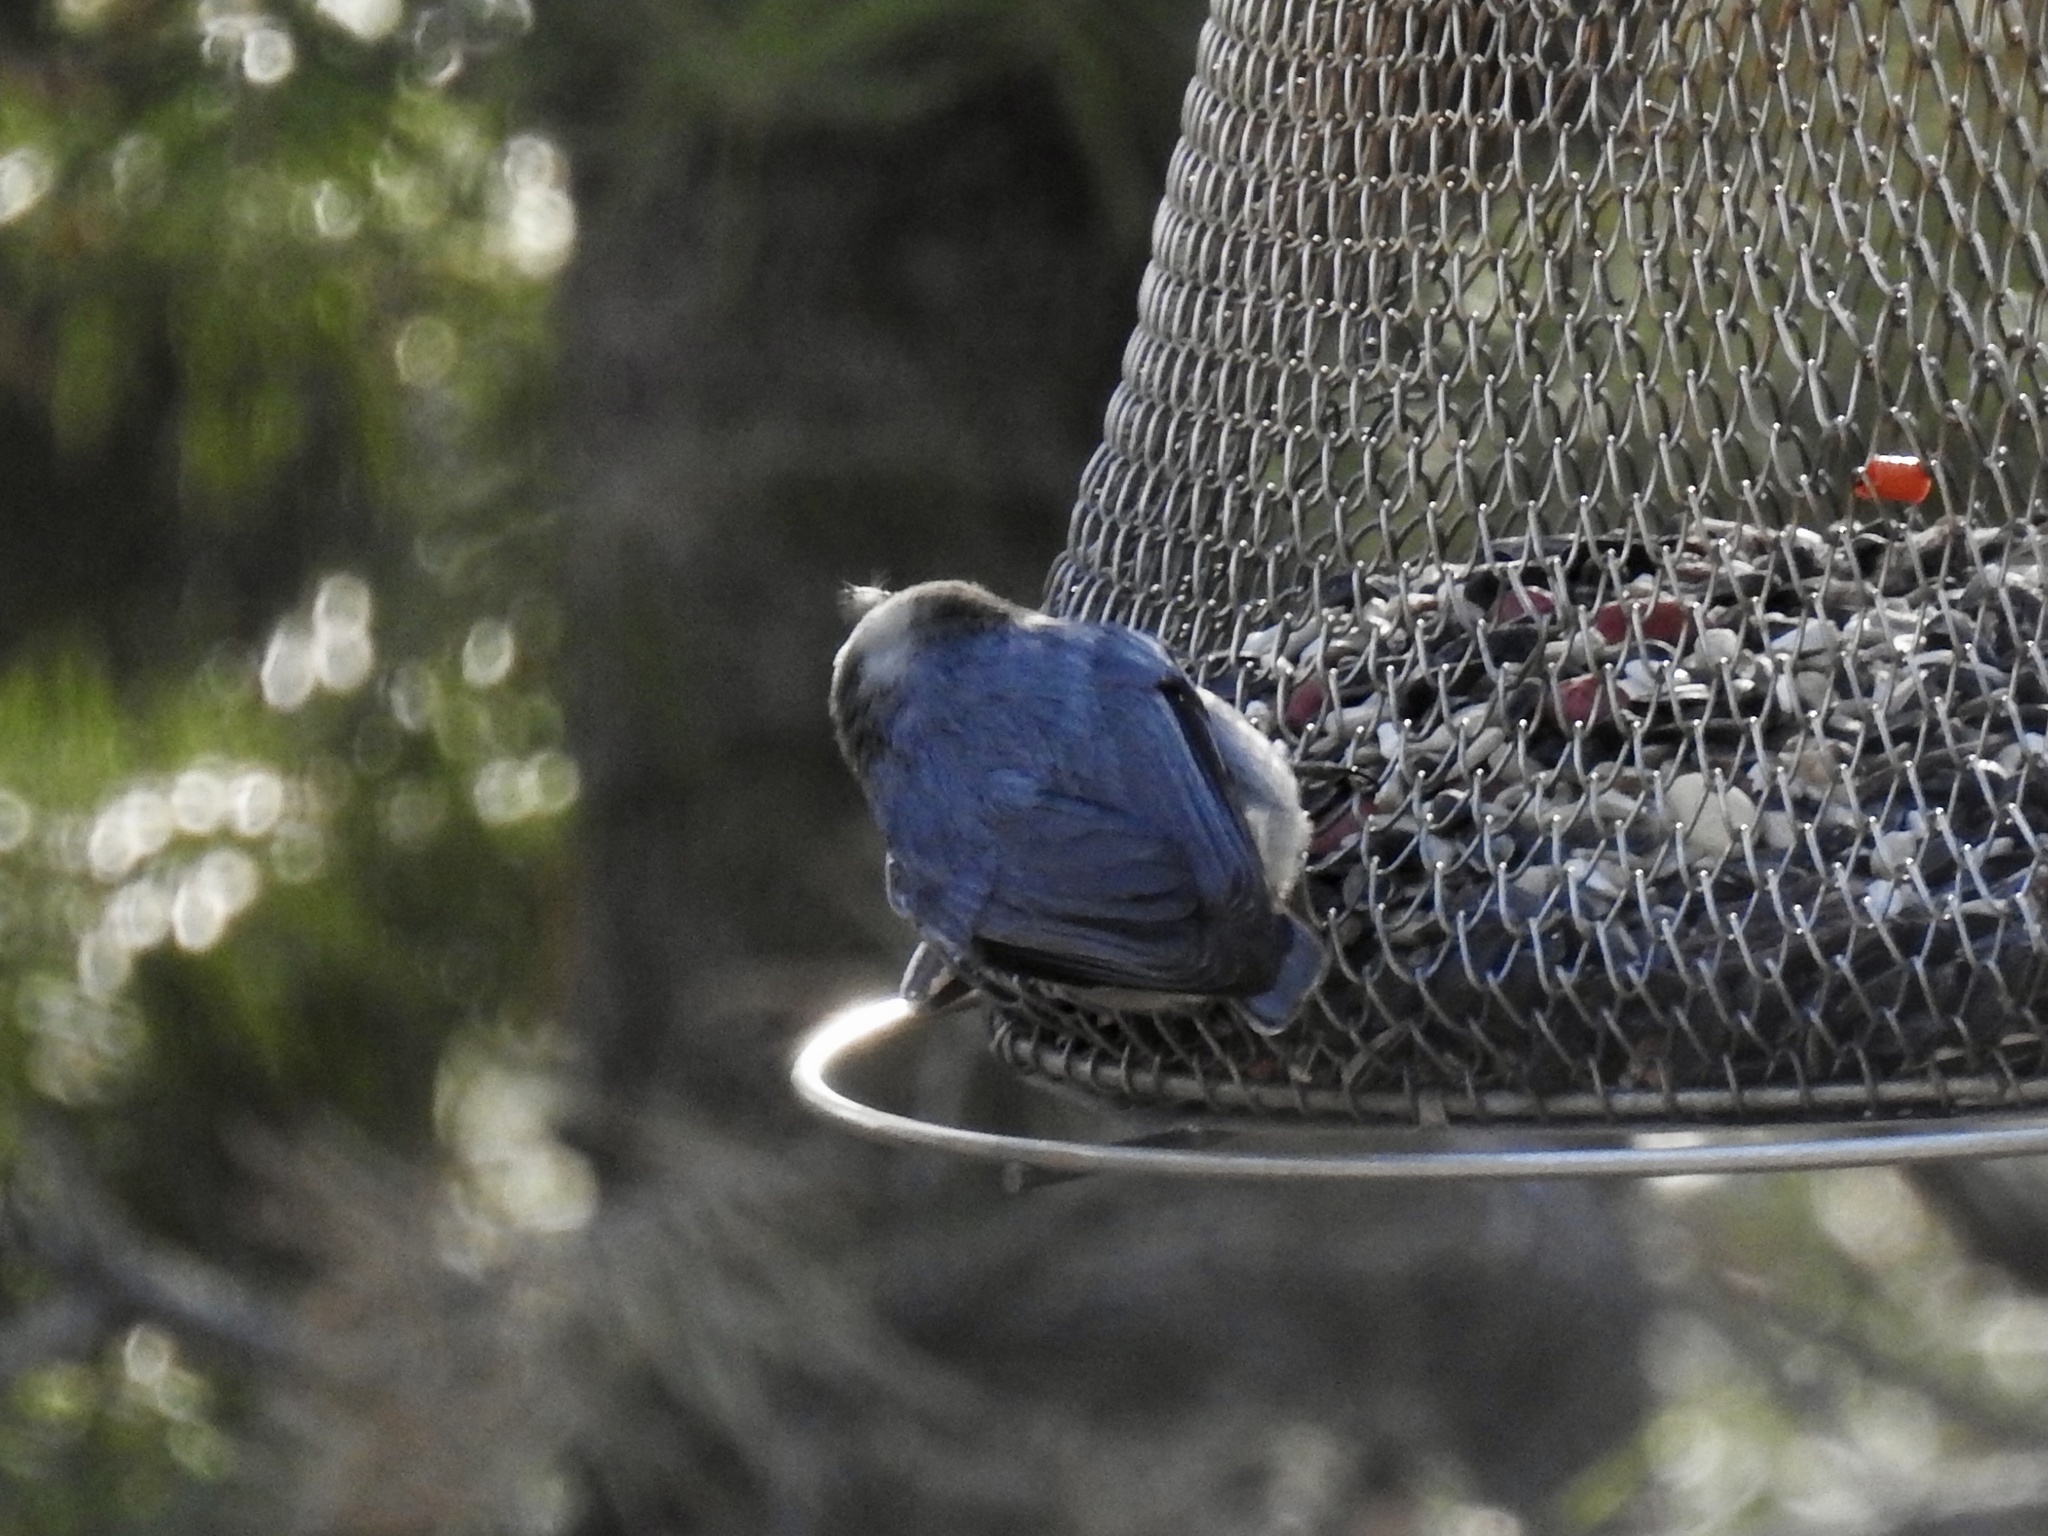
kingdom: Animalia
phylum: Chordata
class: Aves
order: Passeriformes
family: Sittidae
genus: Sitta
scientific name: Sitta pygmaea
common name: Pygmy nuthatch
